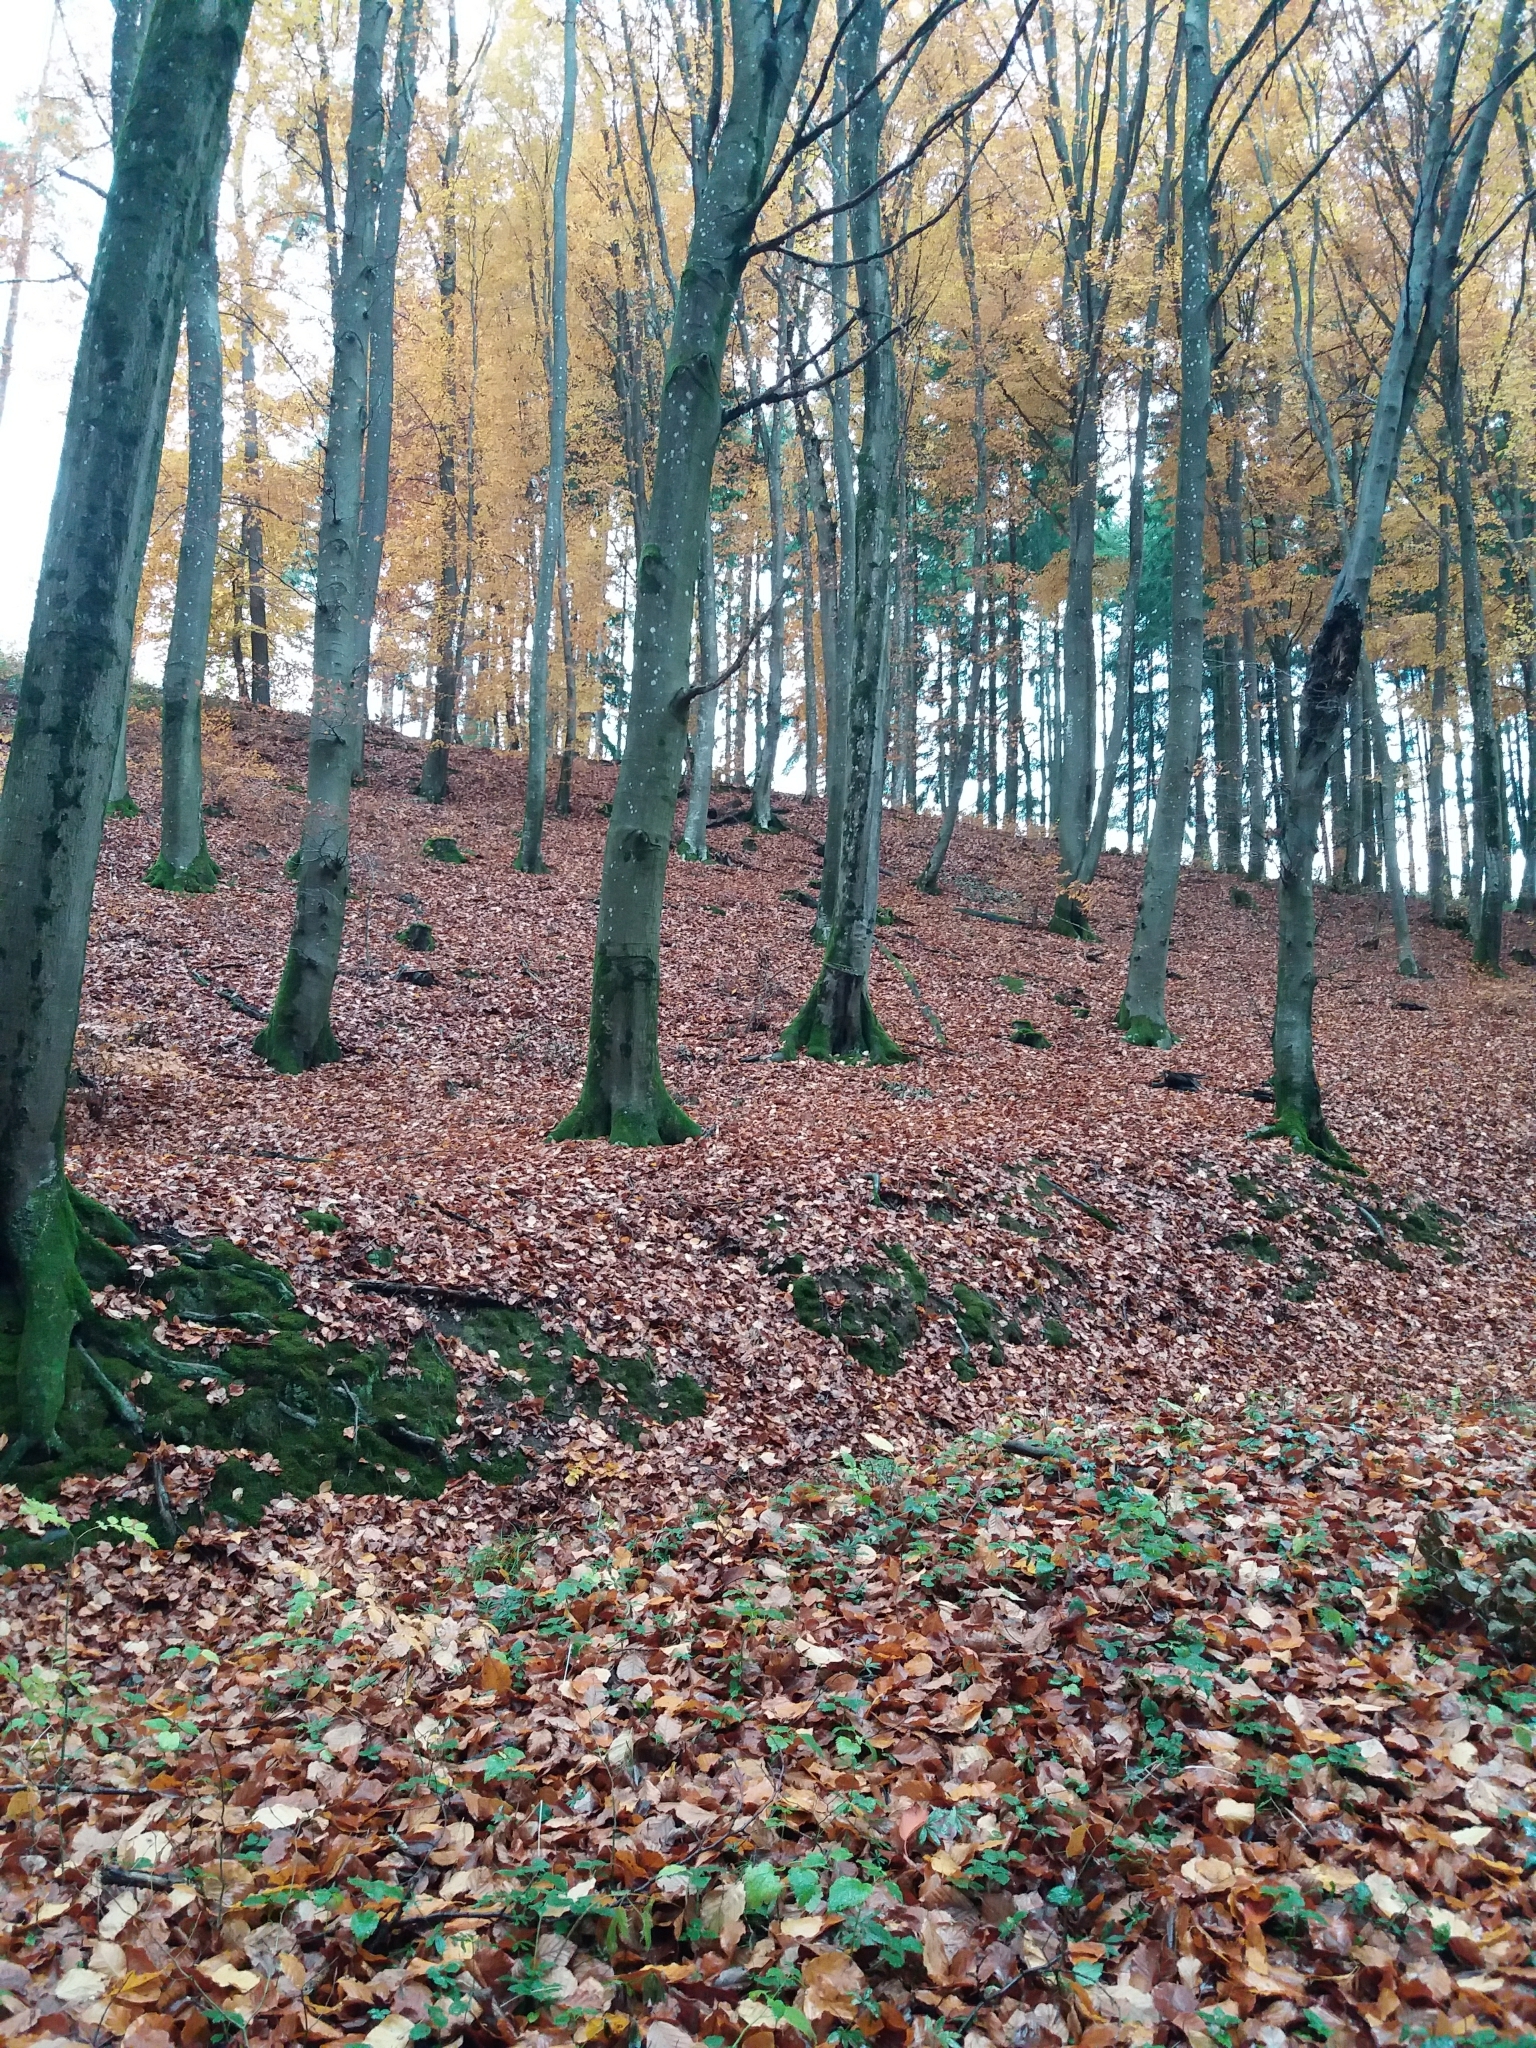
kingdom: Plantae
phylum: Tracheophyta
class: Magnoliopsida
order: Fagales
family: Fagaceae
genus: Fagus
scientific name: Fagus sylvatica
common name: Beech
